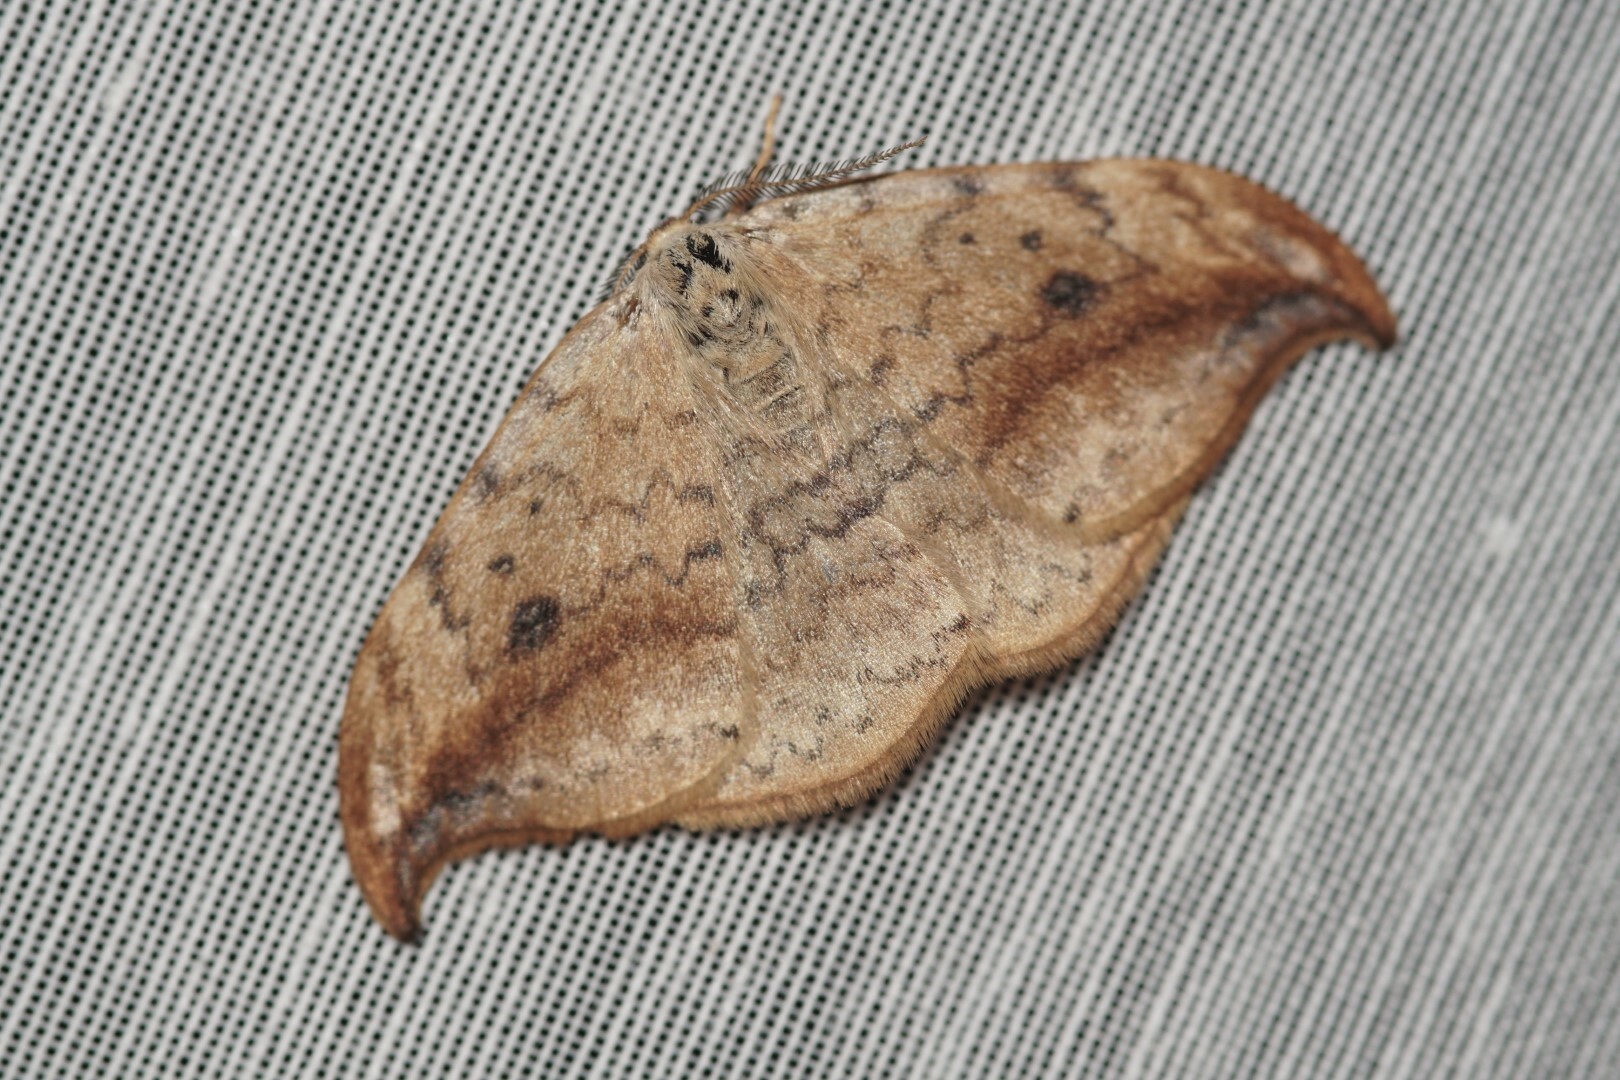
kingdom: Animalia
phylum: Arthropoda
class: Insecta
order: Lepidoptera
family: Drepanidae
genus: Drepana
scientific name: Drepana falcataria
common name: Pebble hook-tip
